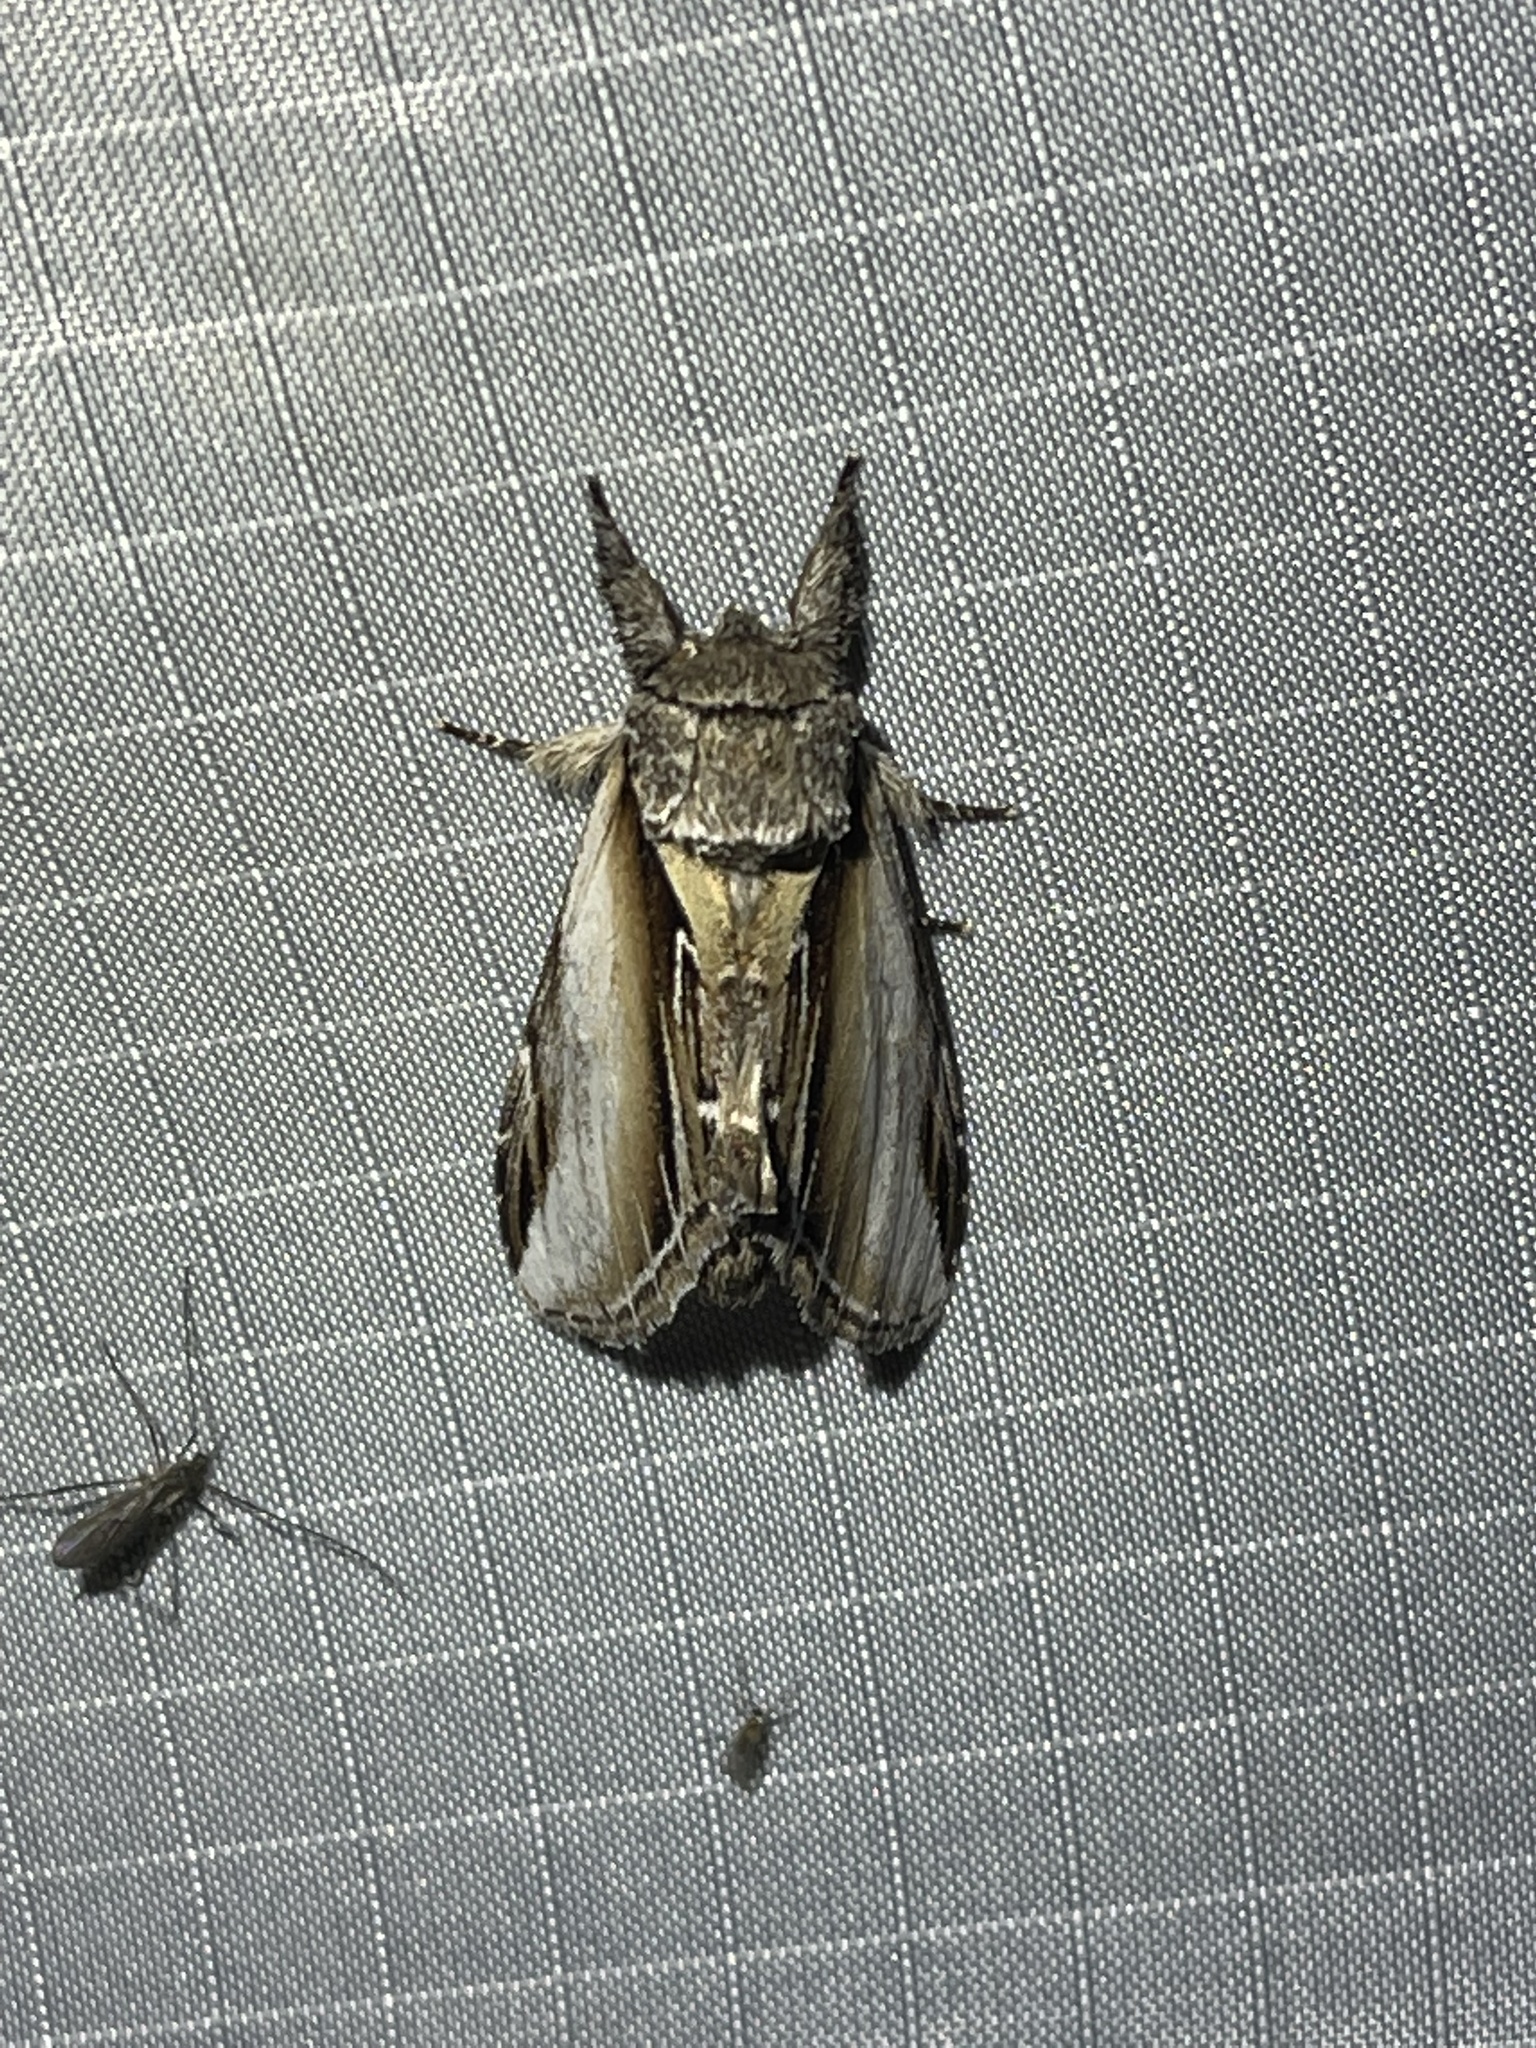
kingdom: Animalia
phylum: Arthropoda
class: Insecta
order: Lepidoptera
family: Notodontidae
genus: Pheosia
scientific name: Pheosia rimosa
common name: Black-rimmed prominent
